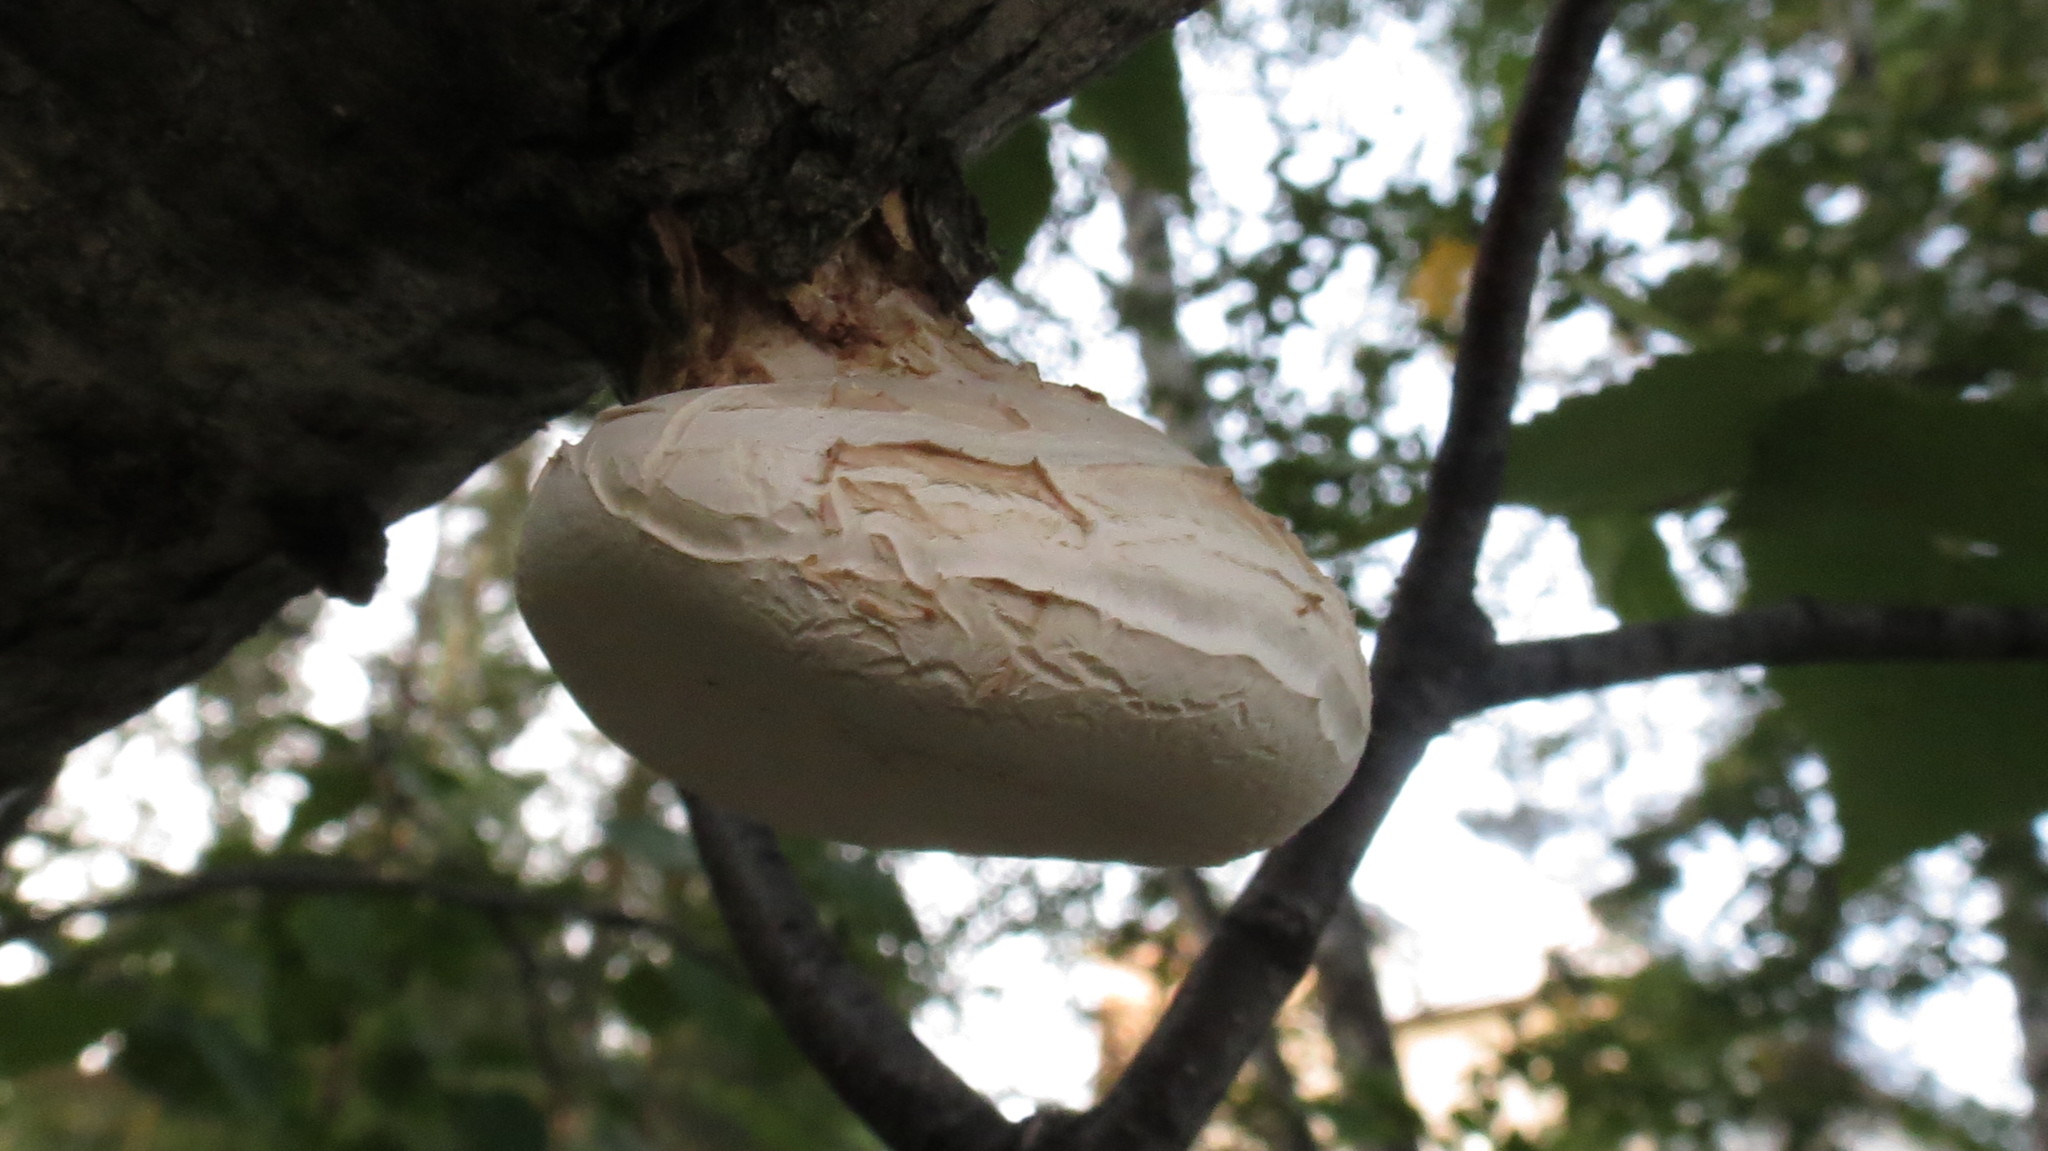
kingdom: Fungi
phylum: Basidiomycota
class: Agaricomycetes
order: Polyporales
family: Fomitopsidaceae
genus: Fomitopsis
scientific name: Fomitopsis betulina
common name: Birch polypore
